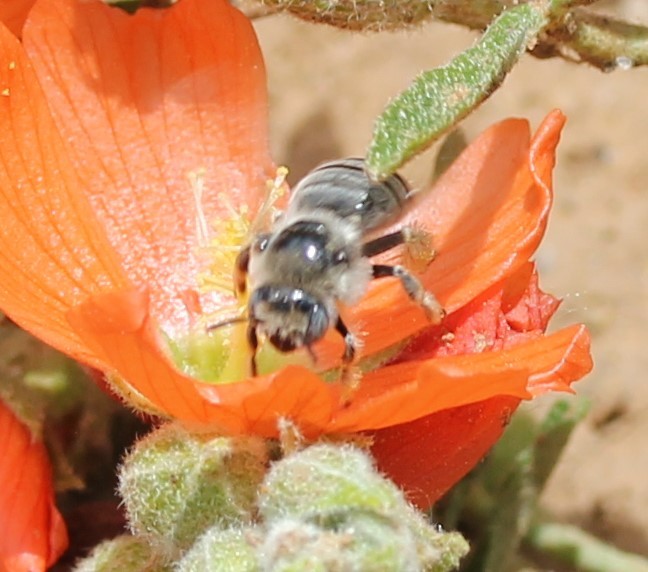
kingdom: Animalia
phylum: Arthropoda
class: Insecta
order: Hymenoptera
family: Apidae
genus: Diadasia
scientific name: Diadasia diminuta
